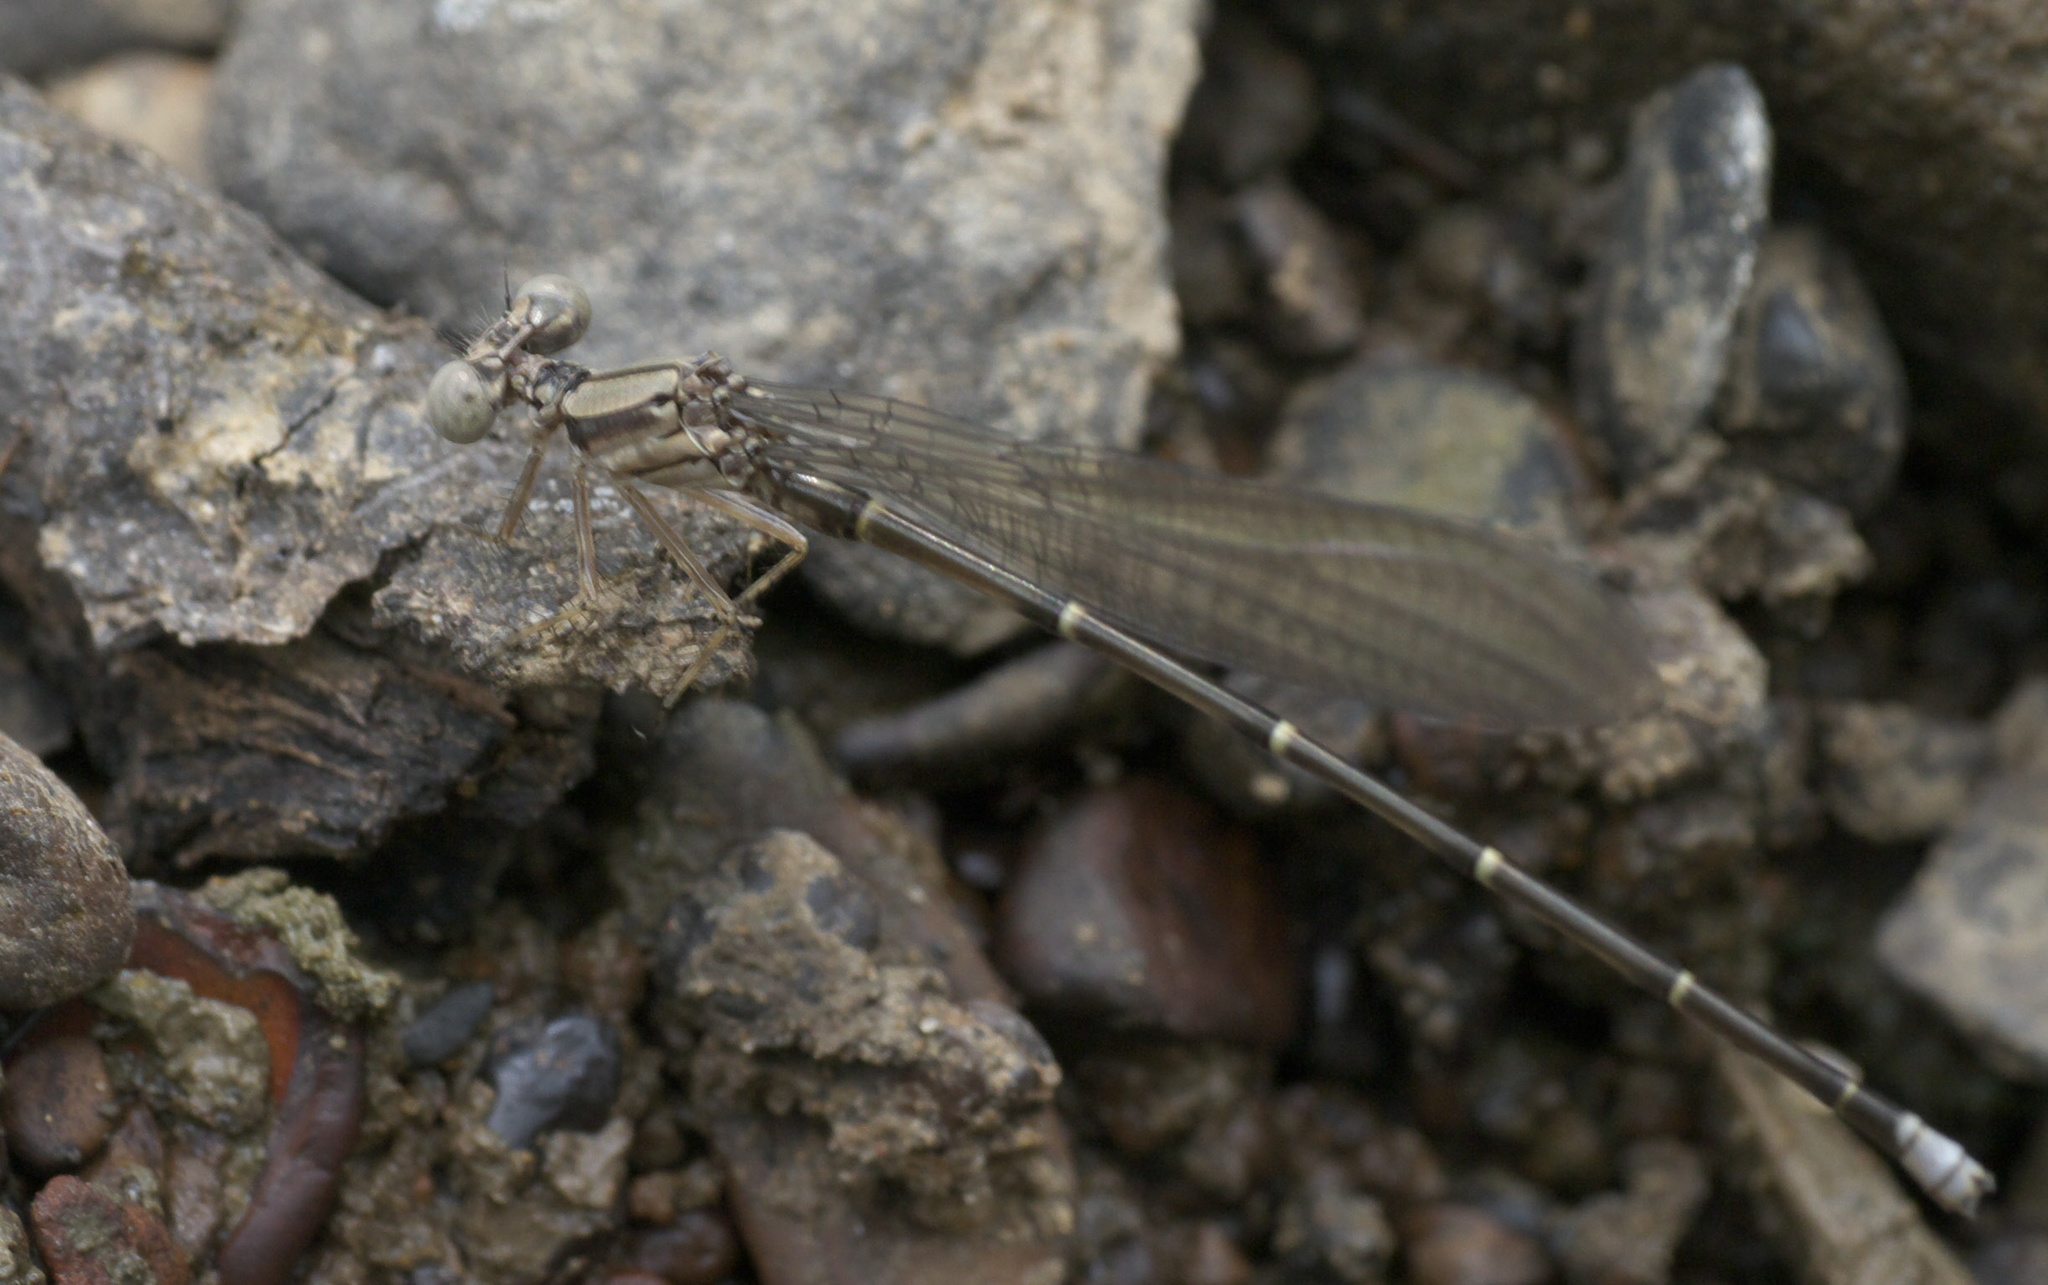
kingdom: Animalia
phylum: Arthropoda
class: Insecta
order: Odonata
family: Coenagrionidae
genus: Argia
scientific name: Argia tibialis
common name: Blue-tipped dancer
